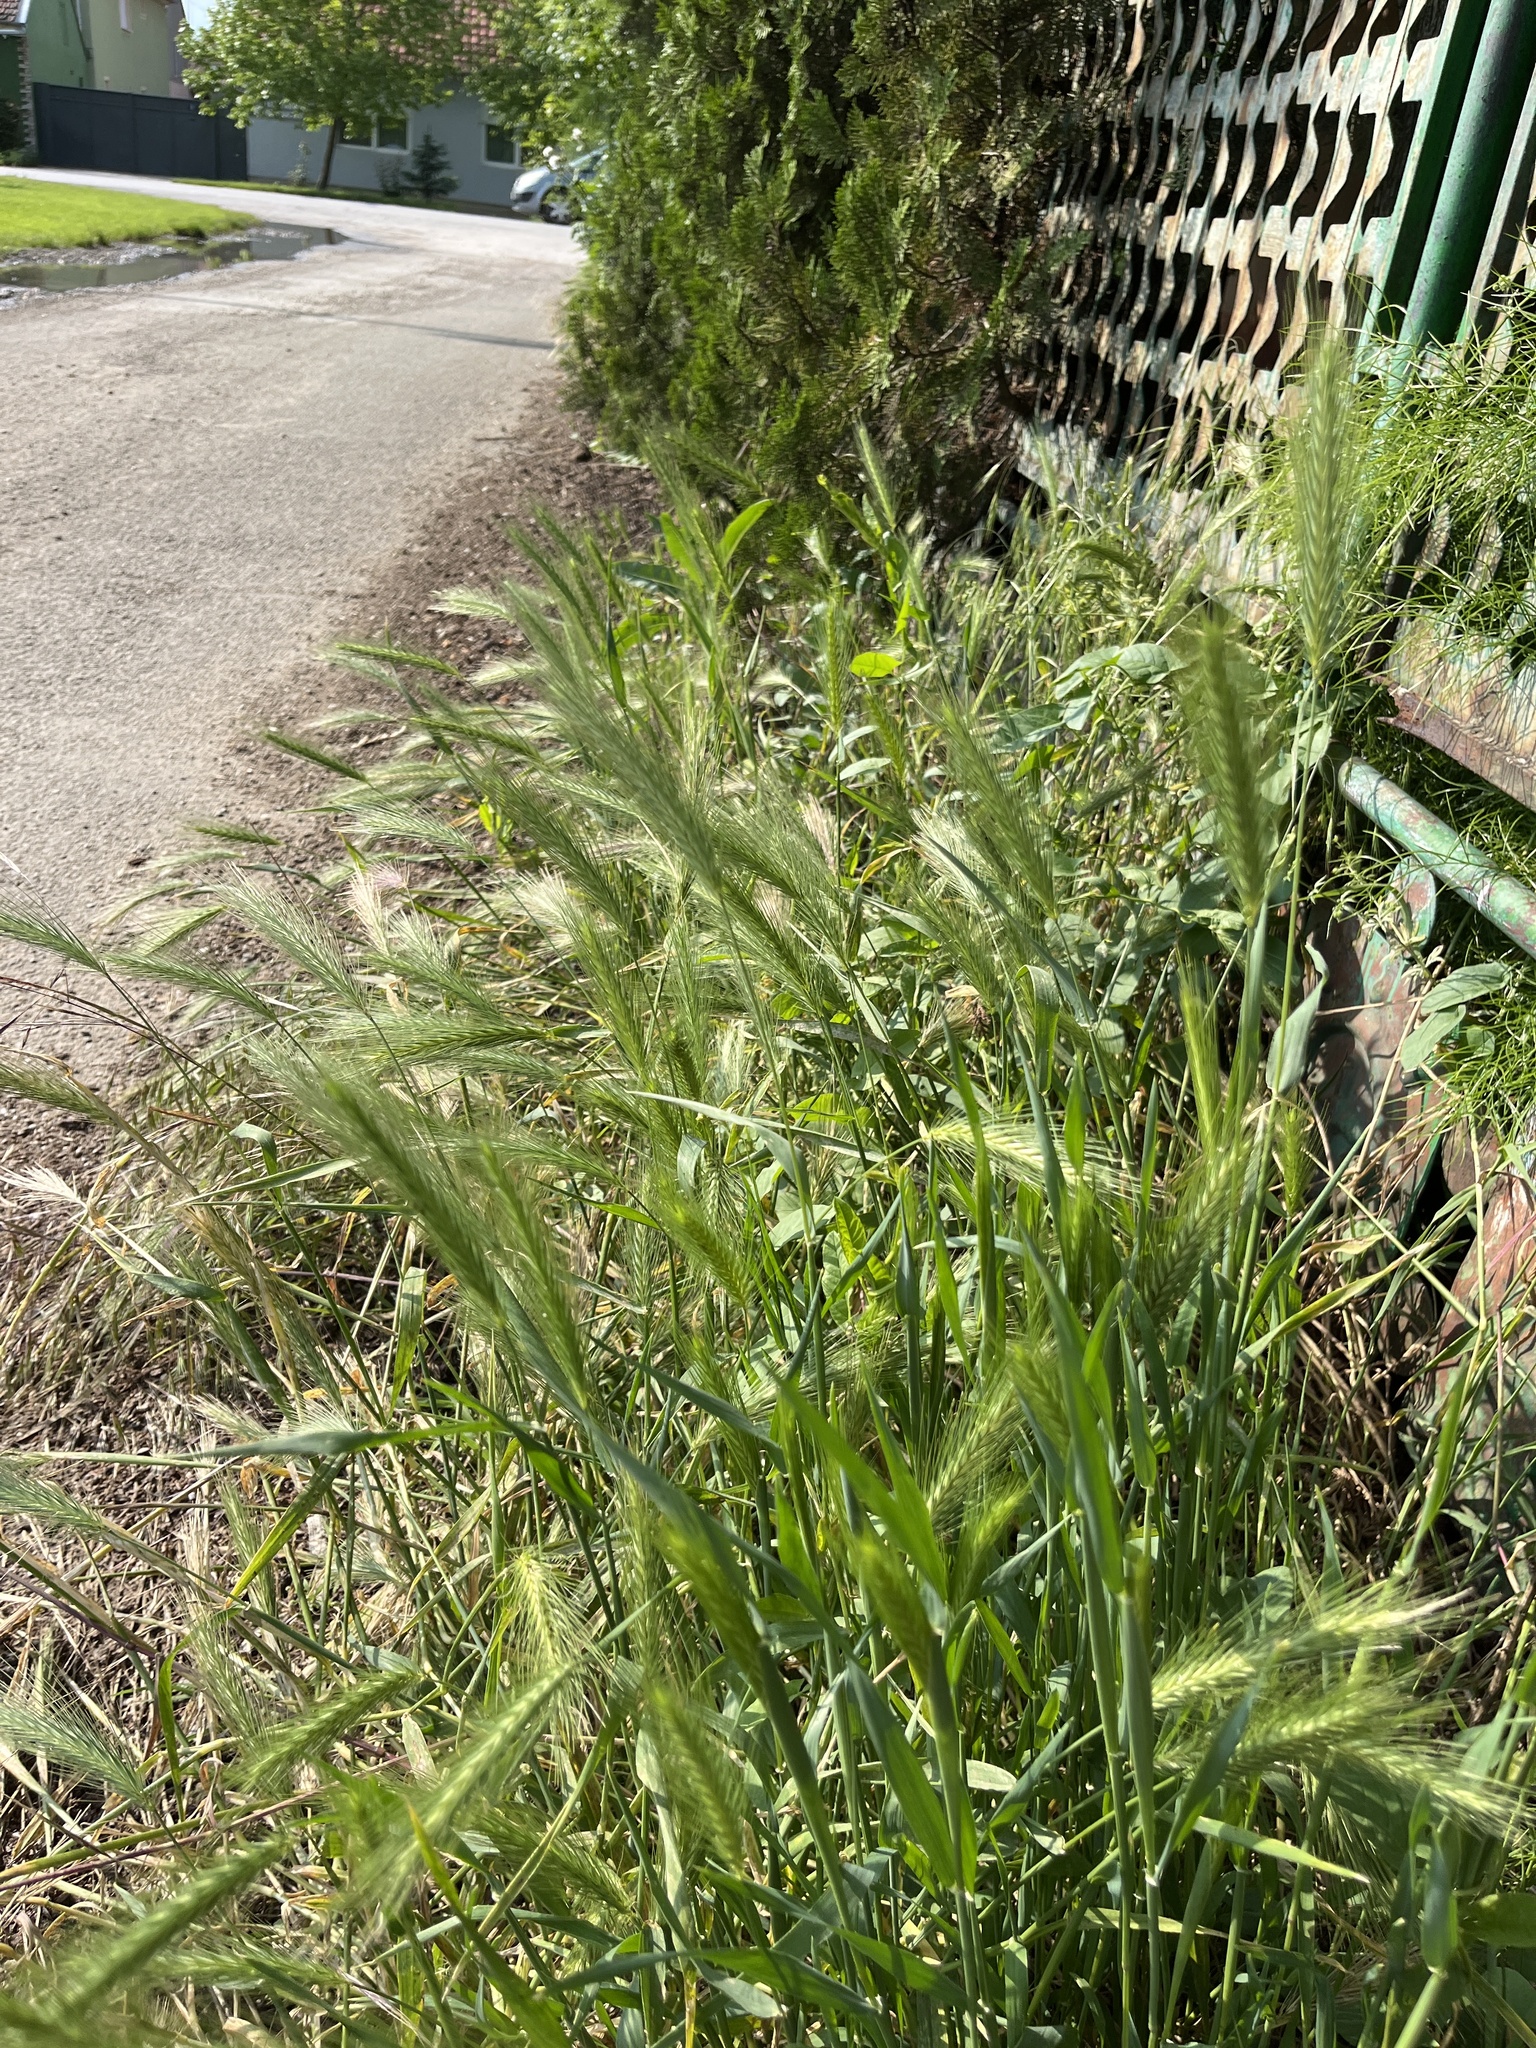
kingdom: Plantae
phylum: Tracheophyta
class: Liliopsida
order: Poales
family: Poaceae
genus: Hordeum
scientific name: Hordeum murinum
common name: Wall barley
